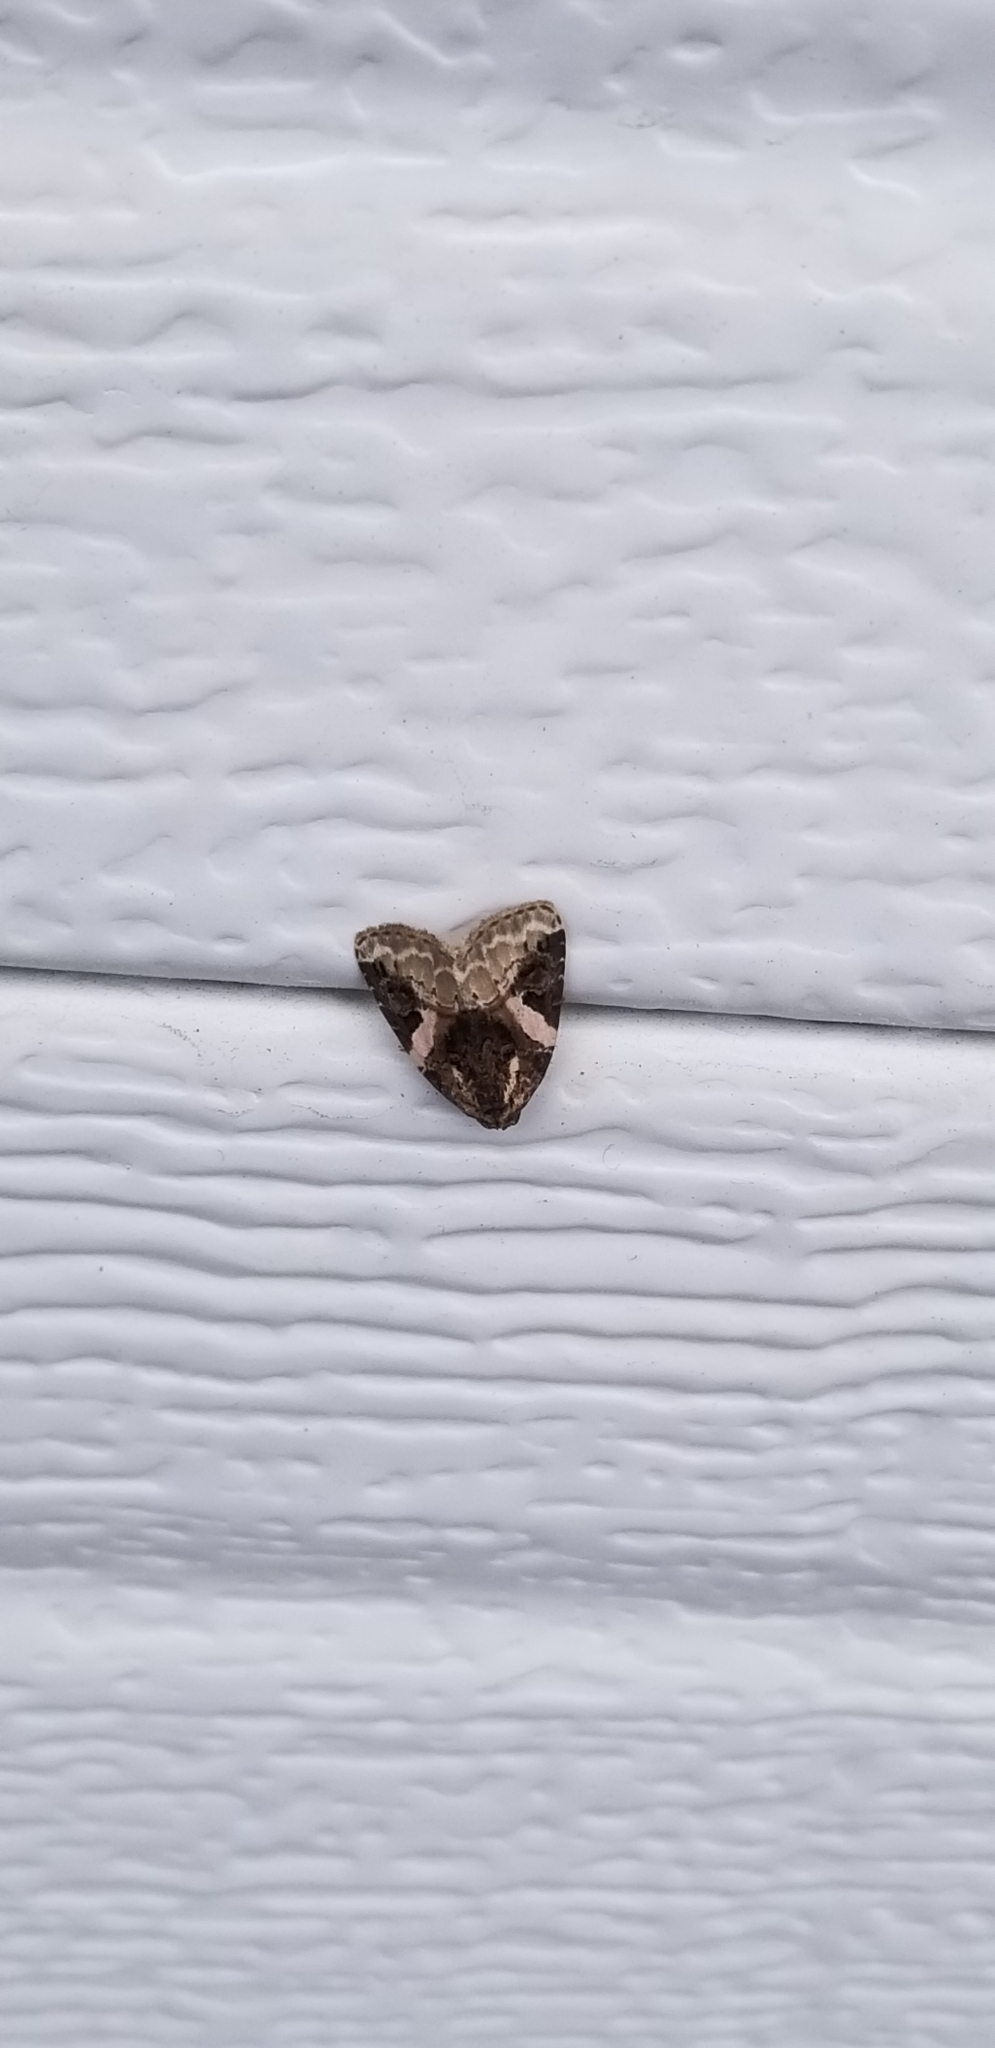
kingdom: Animalia
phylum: Arthropoda
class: Insecta
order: Lepidoptera
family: Noctuidae
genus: Pseudeustrotia
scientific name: Pseudeustrotia carneola
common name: Pink-barred lithacodia moth
